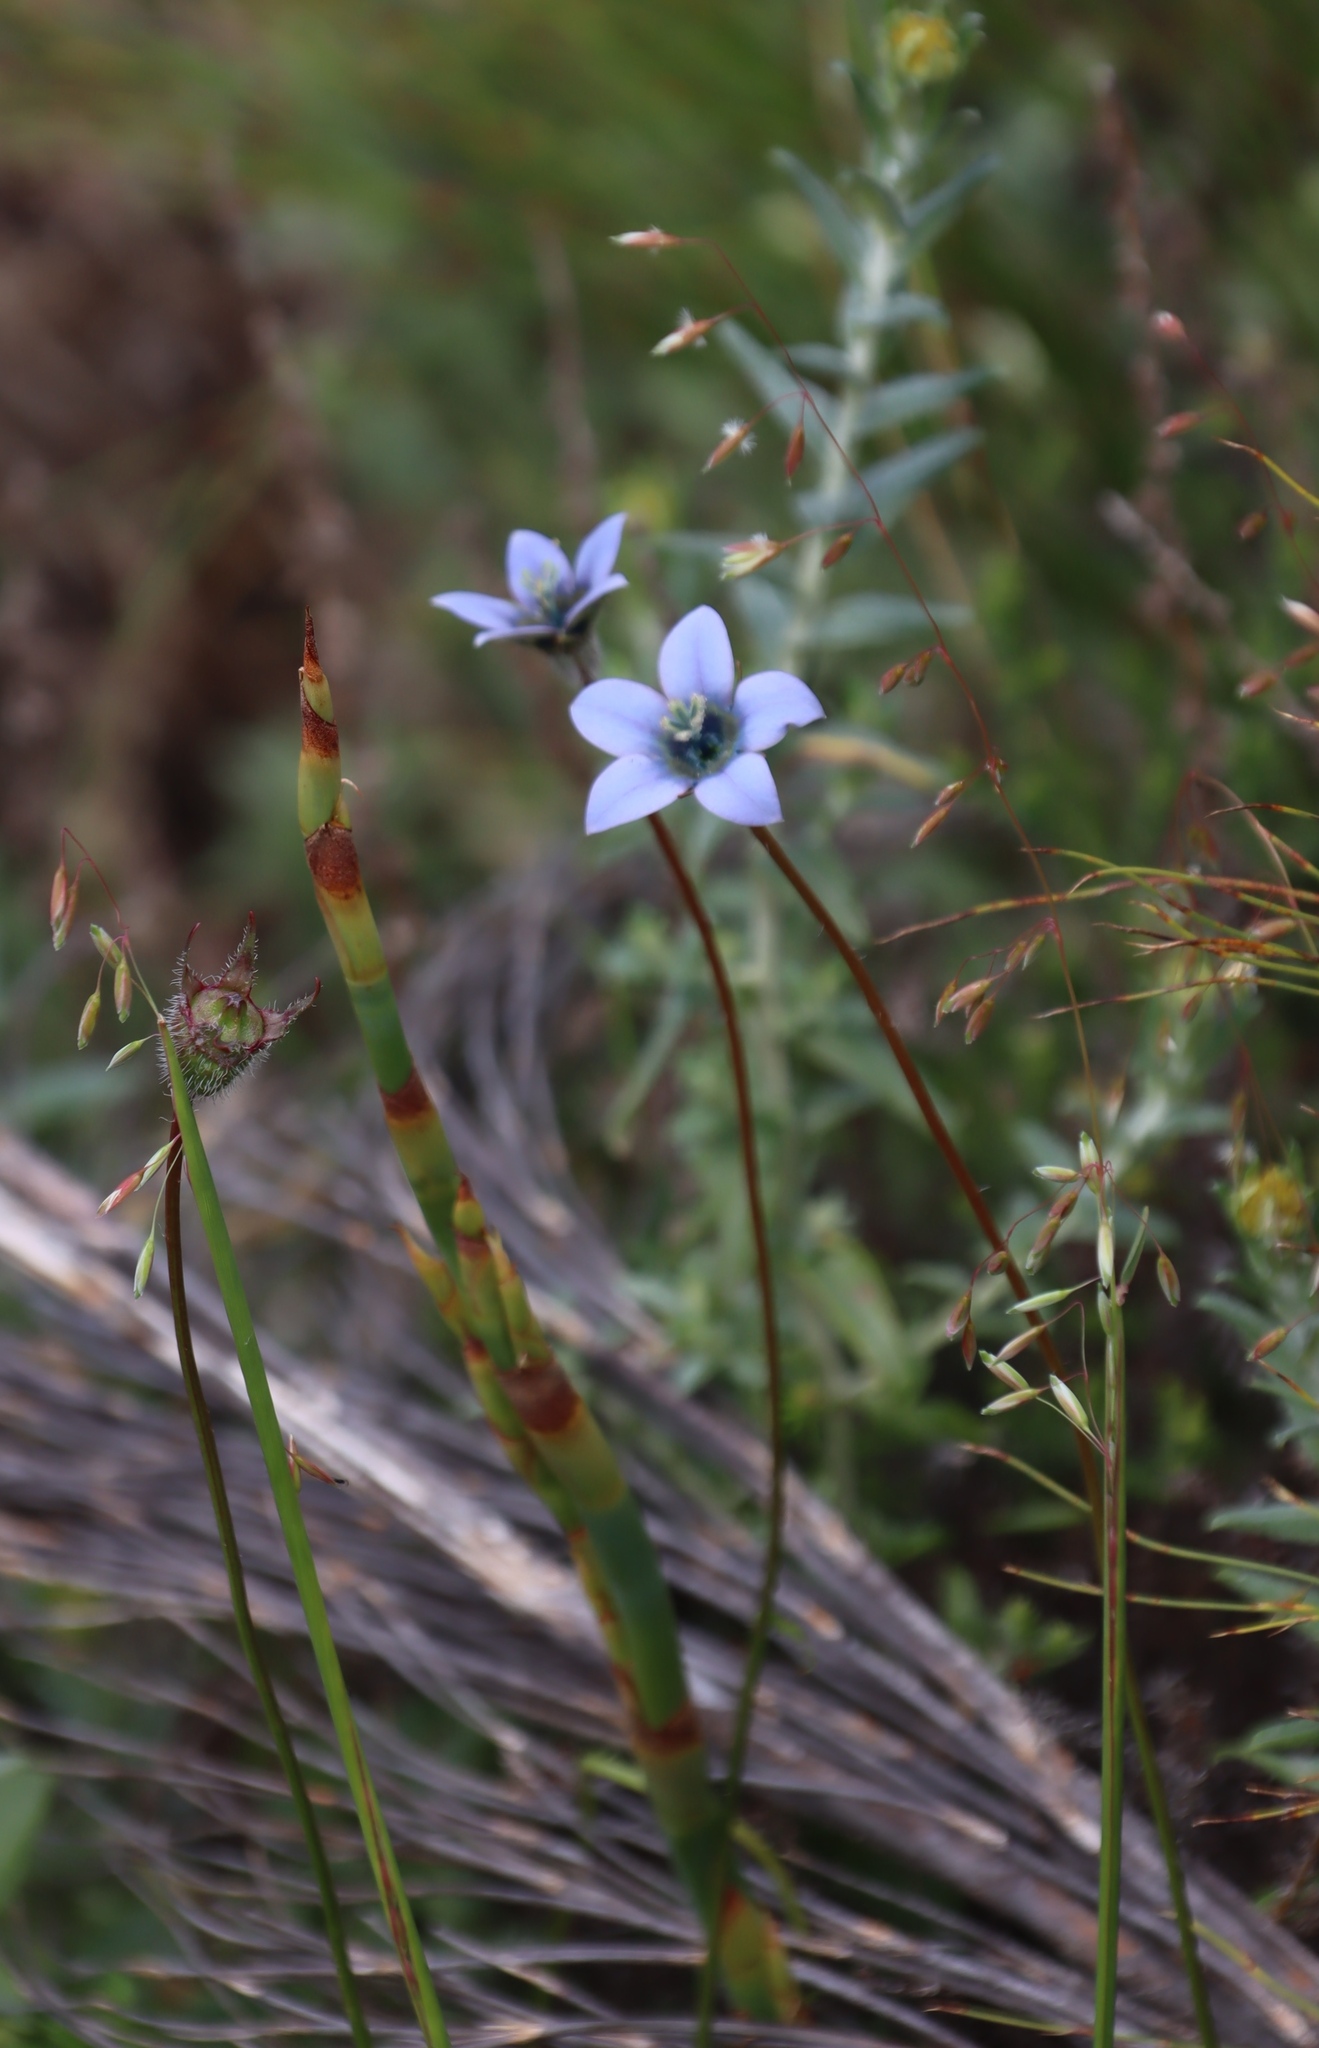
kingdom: Plantae
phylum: Tracheophyta
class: Magnoliopsida
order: Asterales
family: Campanulaceae
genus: Wahlenbergia
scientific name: Wahlenbergia capensis
